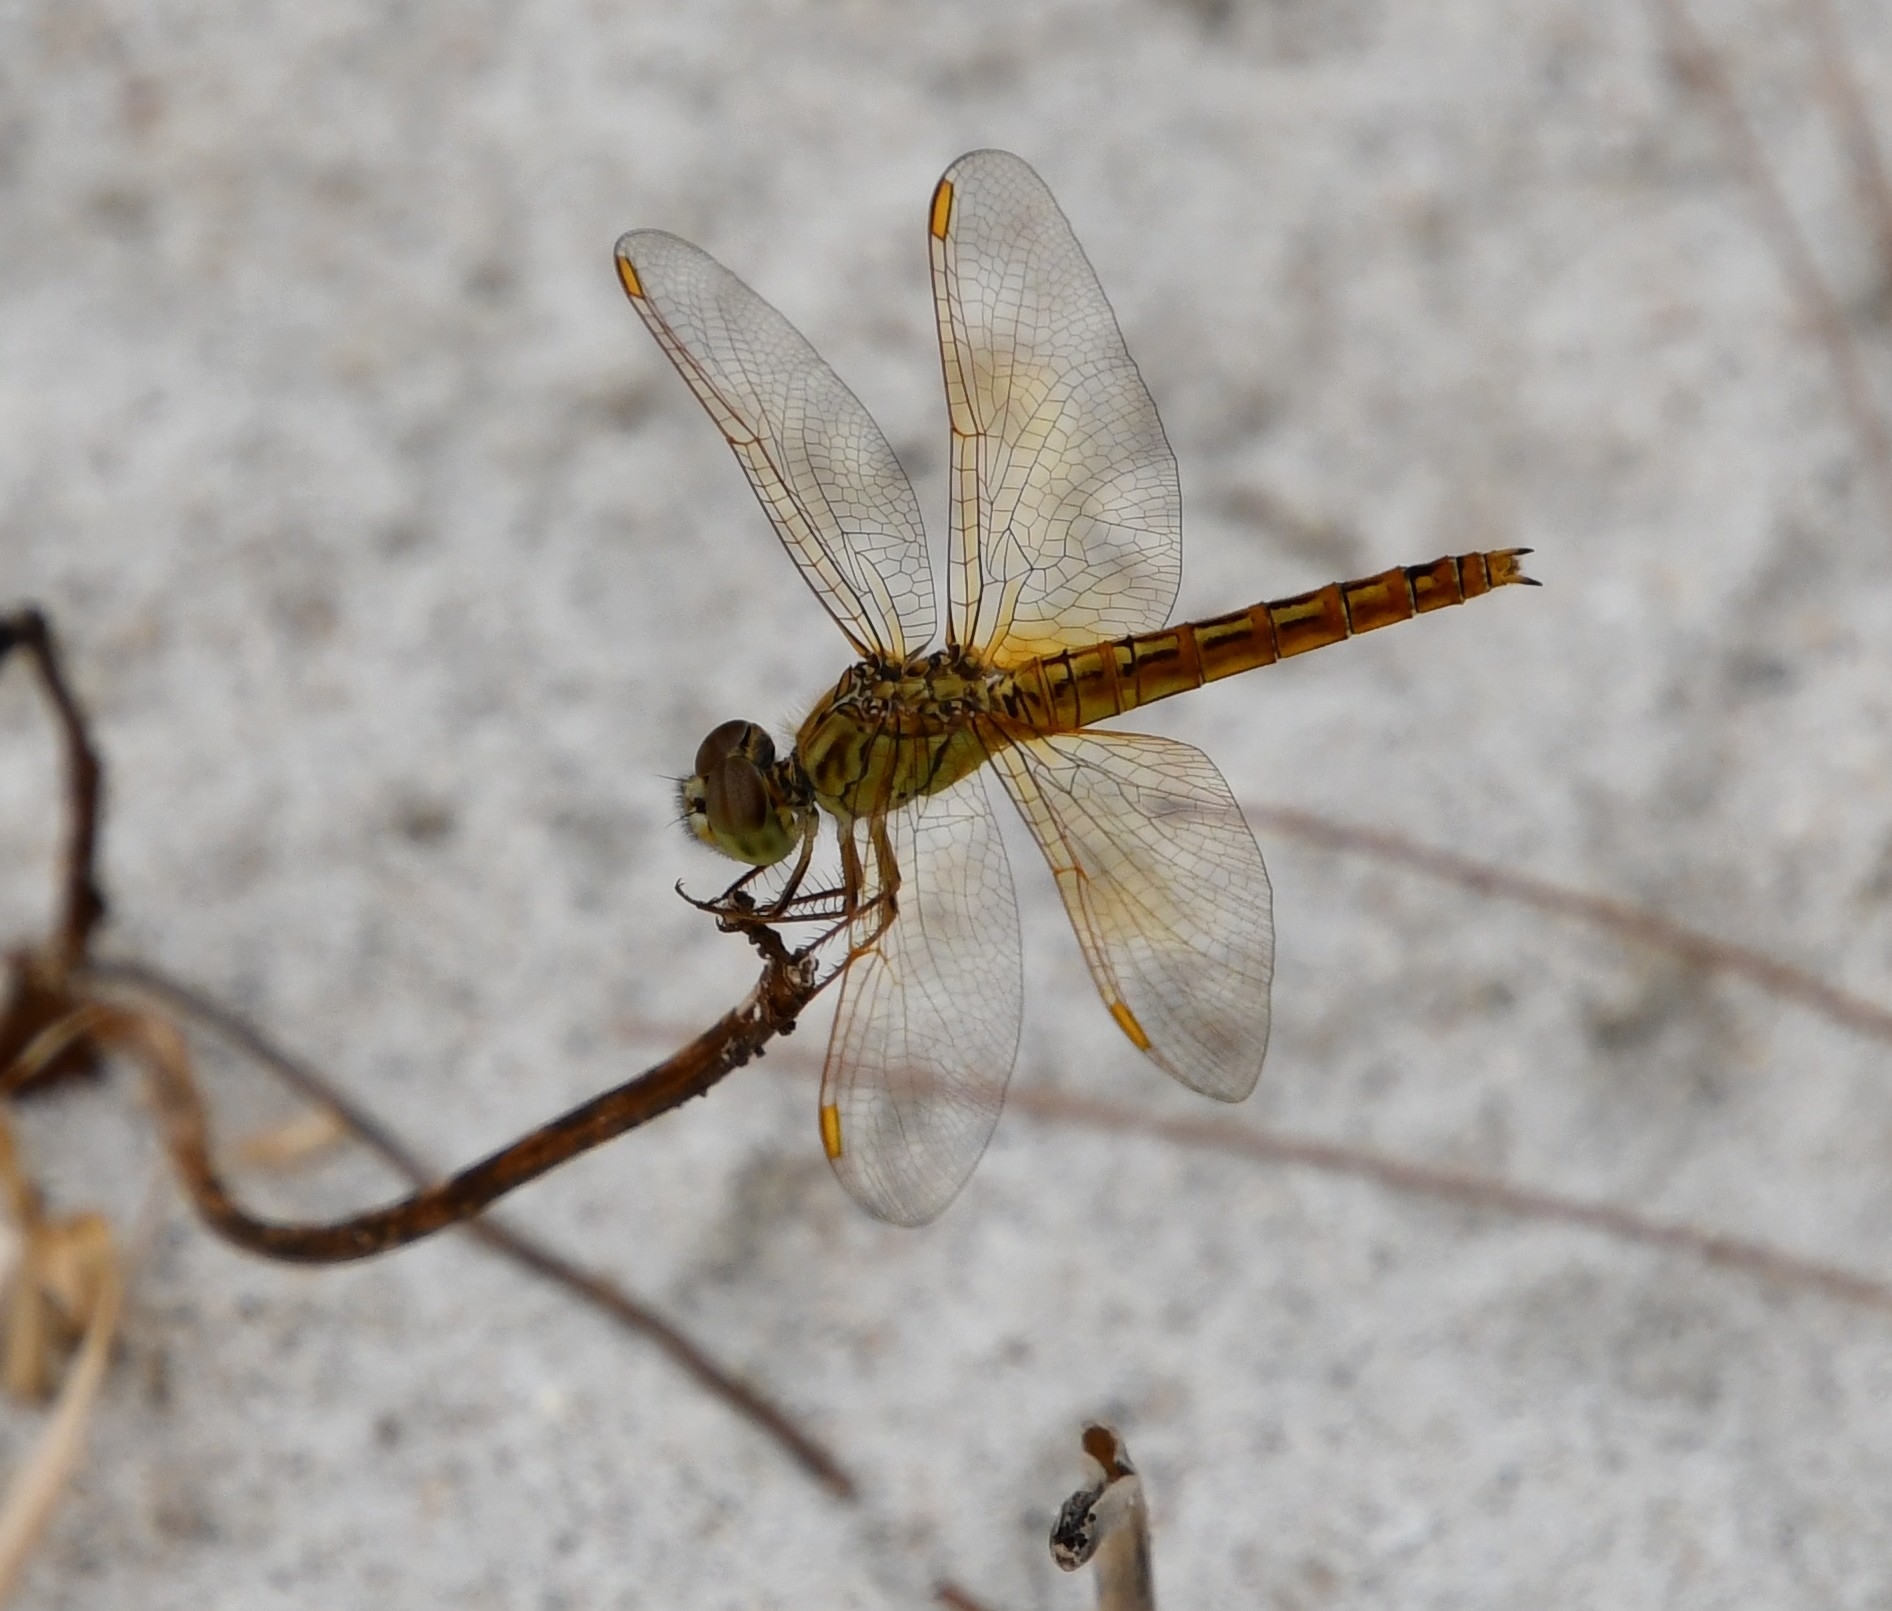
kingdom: Animalia
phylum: Arthropoda
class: Insecta
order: Odonata
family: Libellulidae
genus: Brachythemis
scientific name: Brachythemis contaminata
